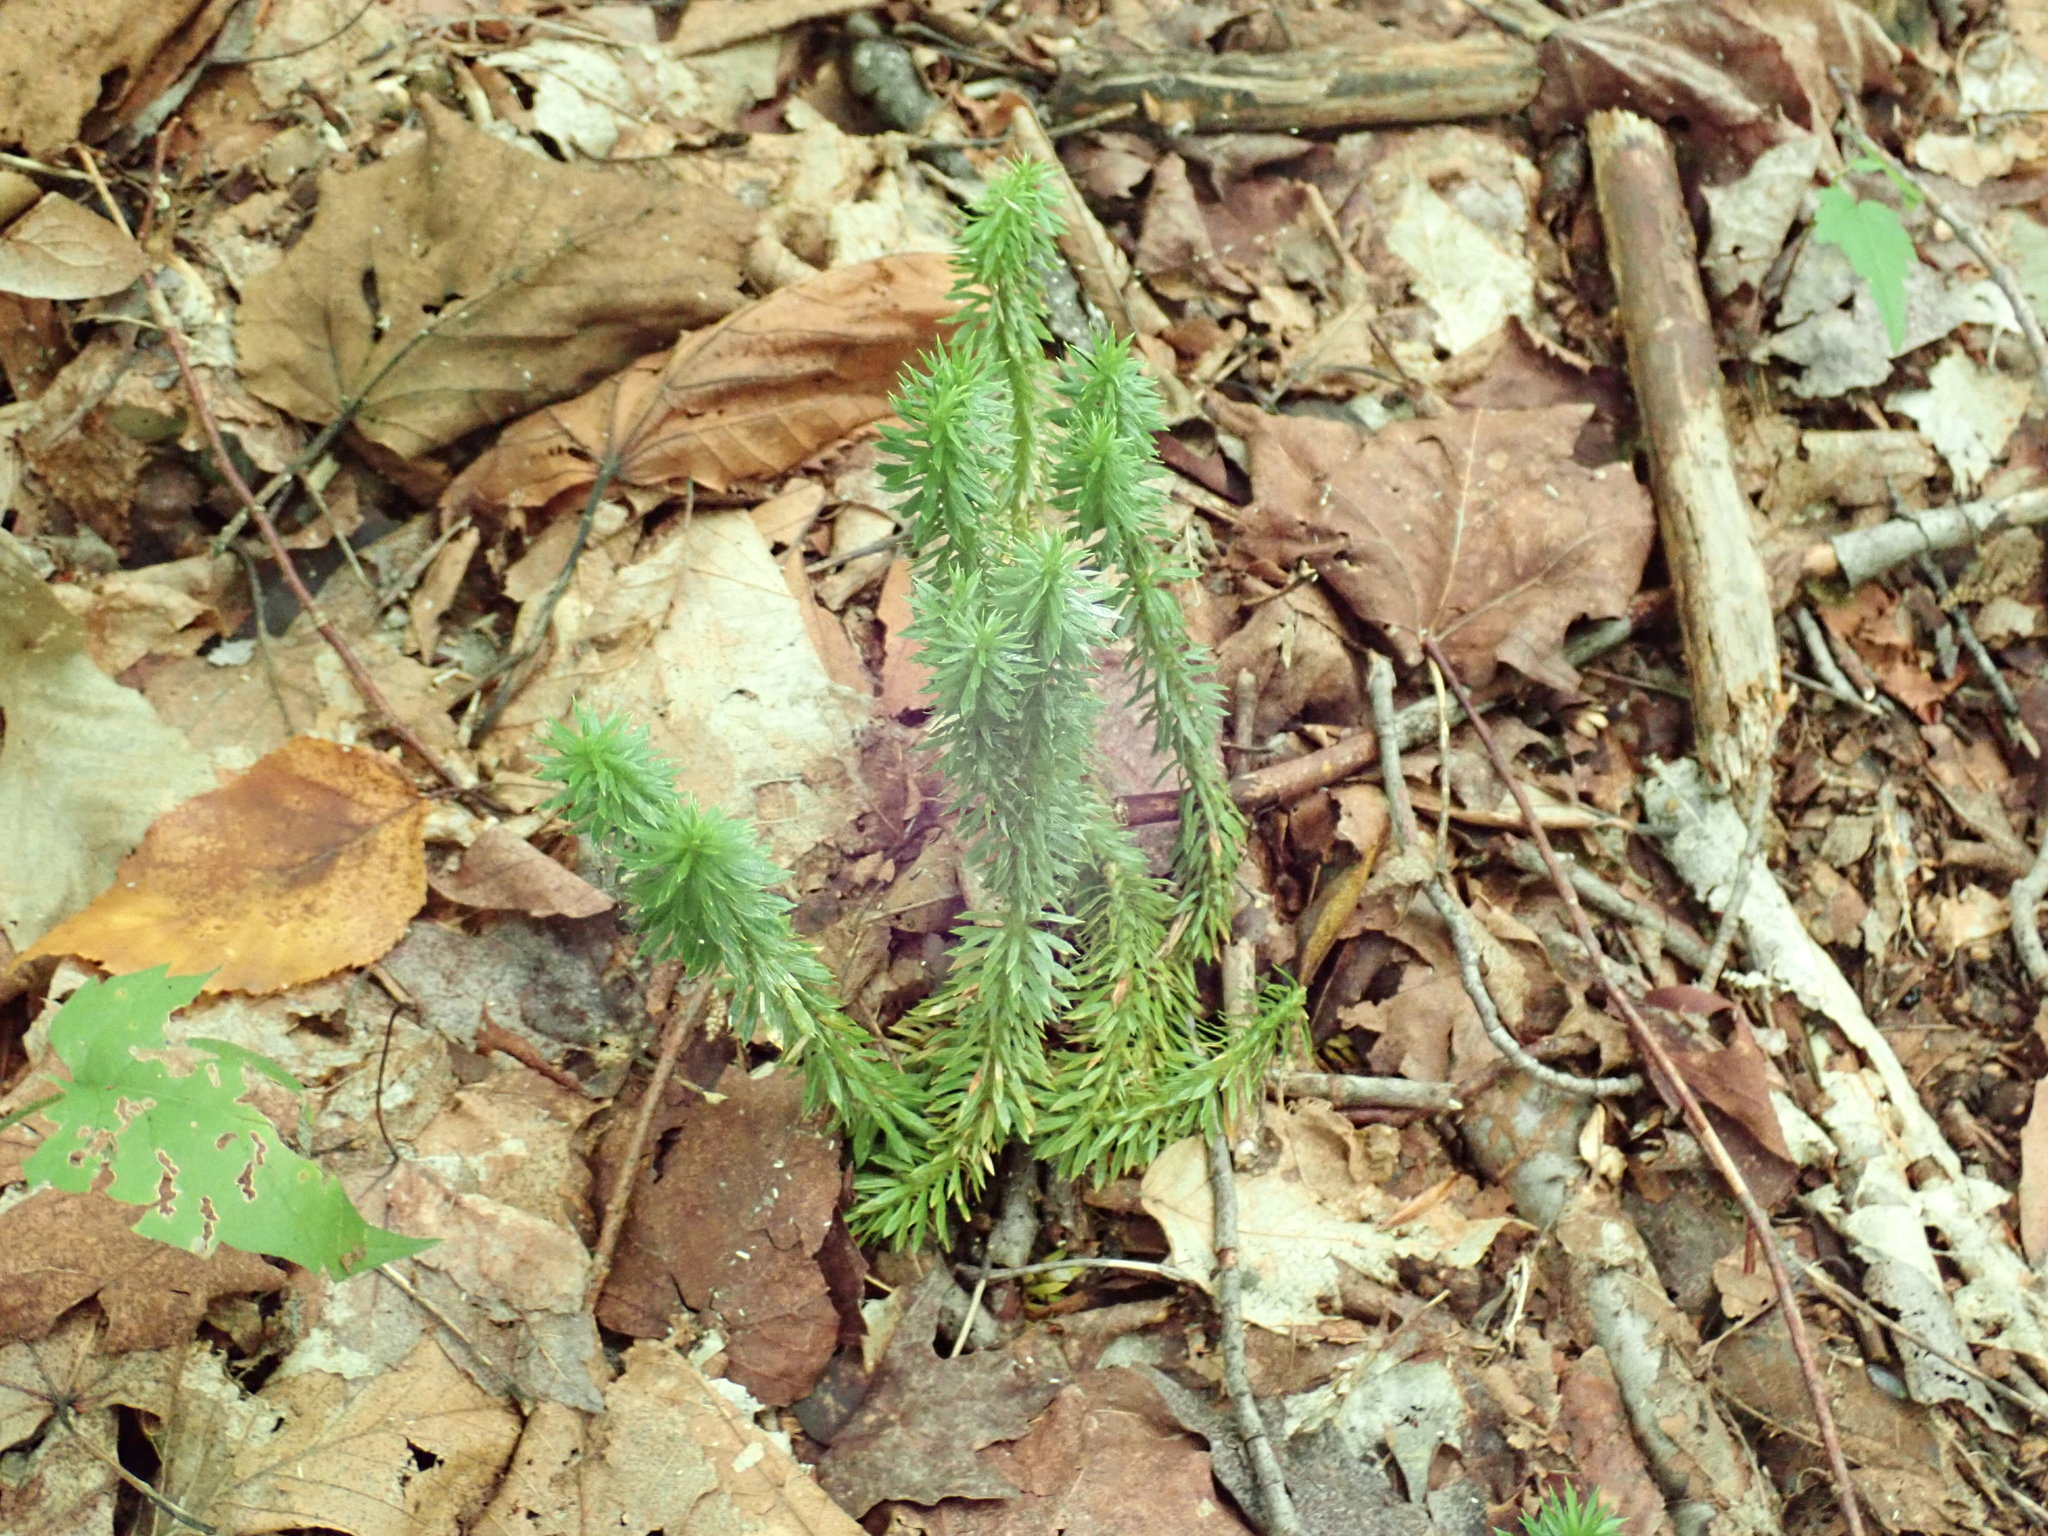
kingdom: Plantae
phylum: Tracheophyta
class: Lycopodiopsida
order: Lycopodiales
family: Lycopodiaceae
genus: Huperzia
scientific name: Huperzia lucidula
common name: Shining clubmoss
